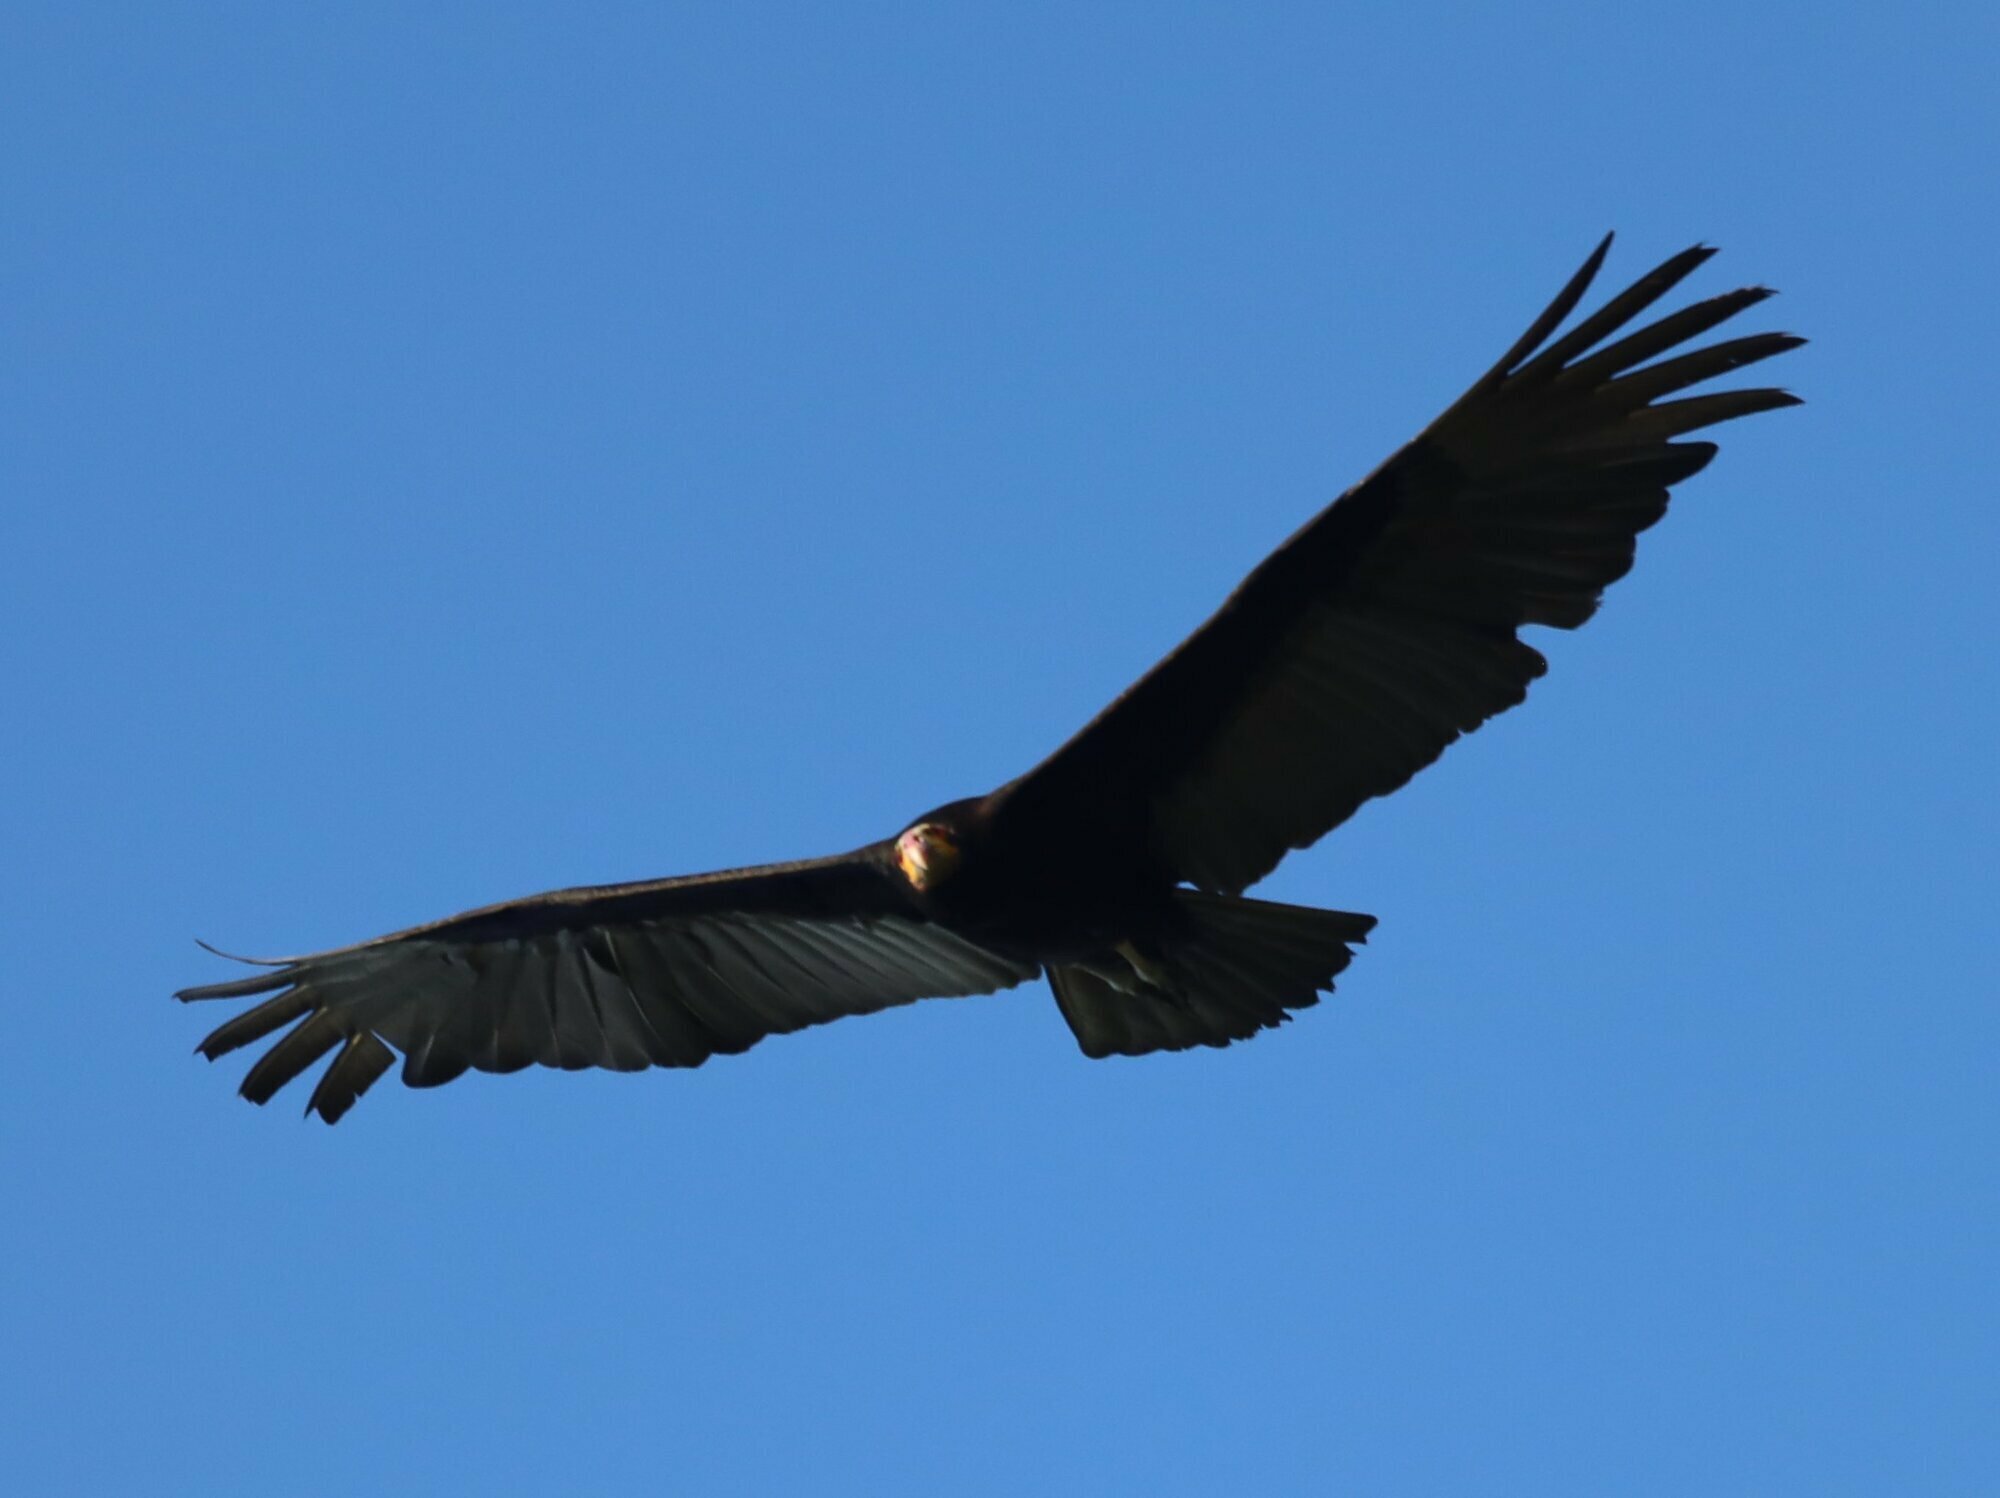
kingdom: Animalia
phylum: Chordata
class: Aves
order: Accipitriformes
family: Cathartidae
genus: Cathartes
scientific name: Cathartes burrovianus
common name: Lesser yellow-headed vulture
